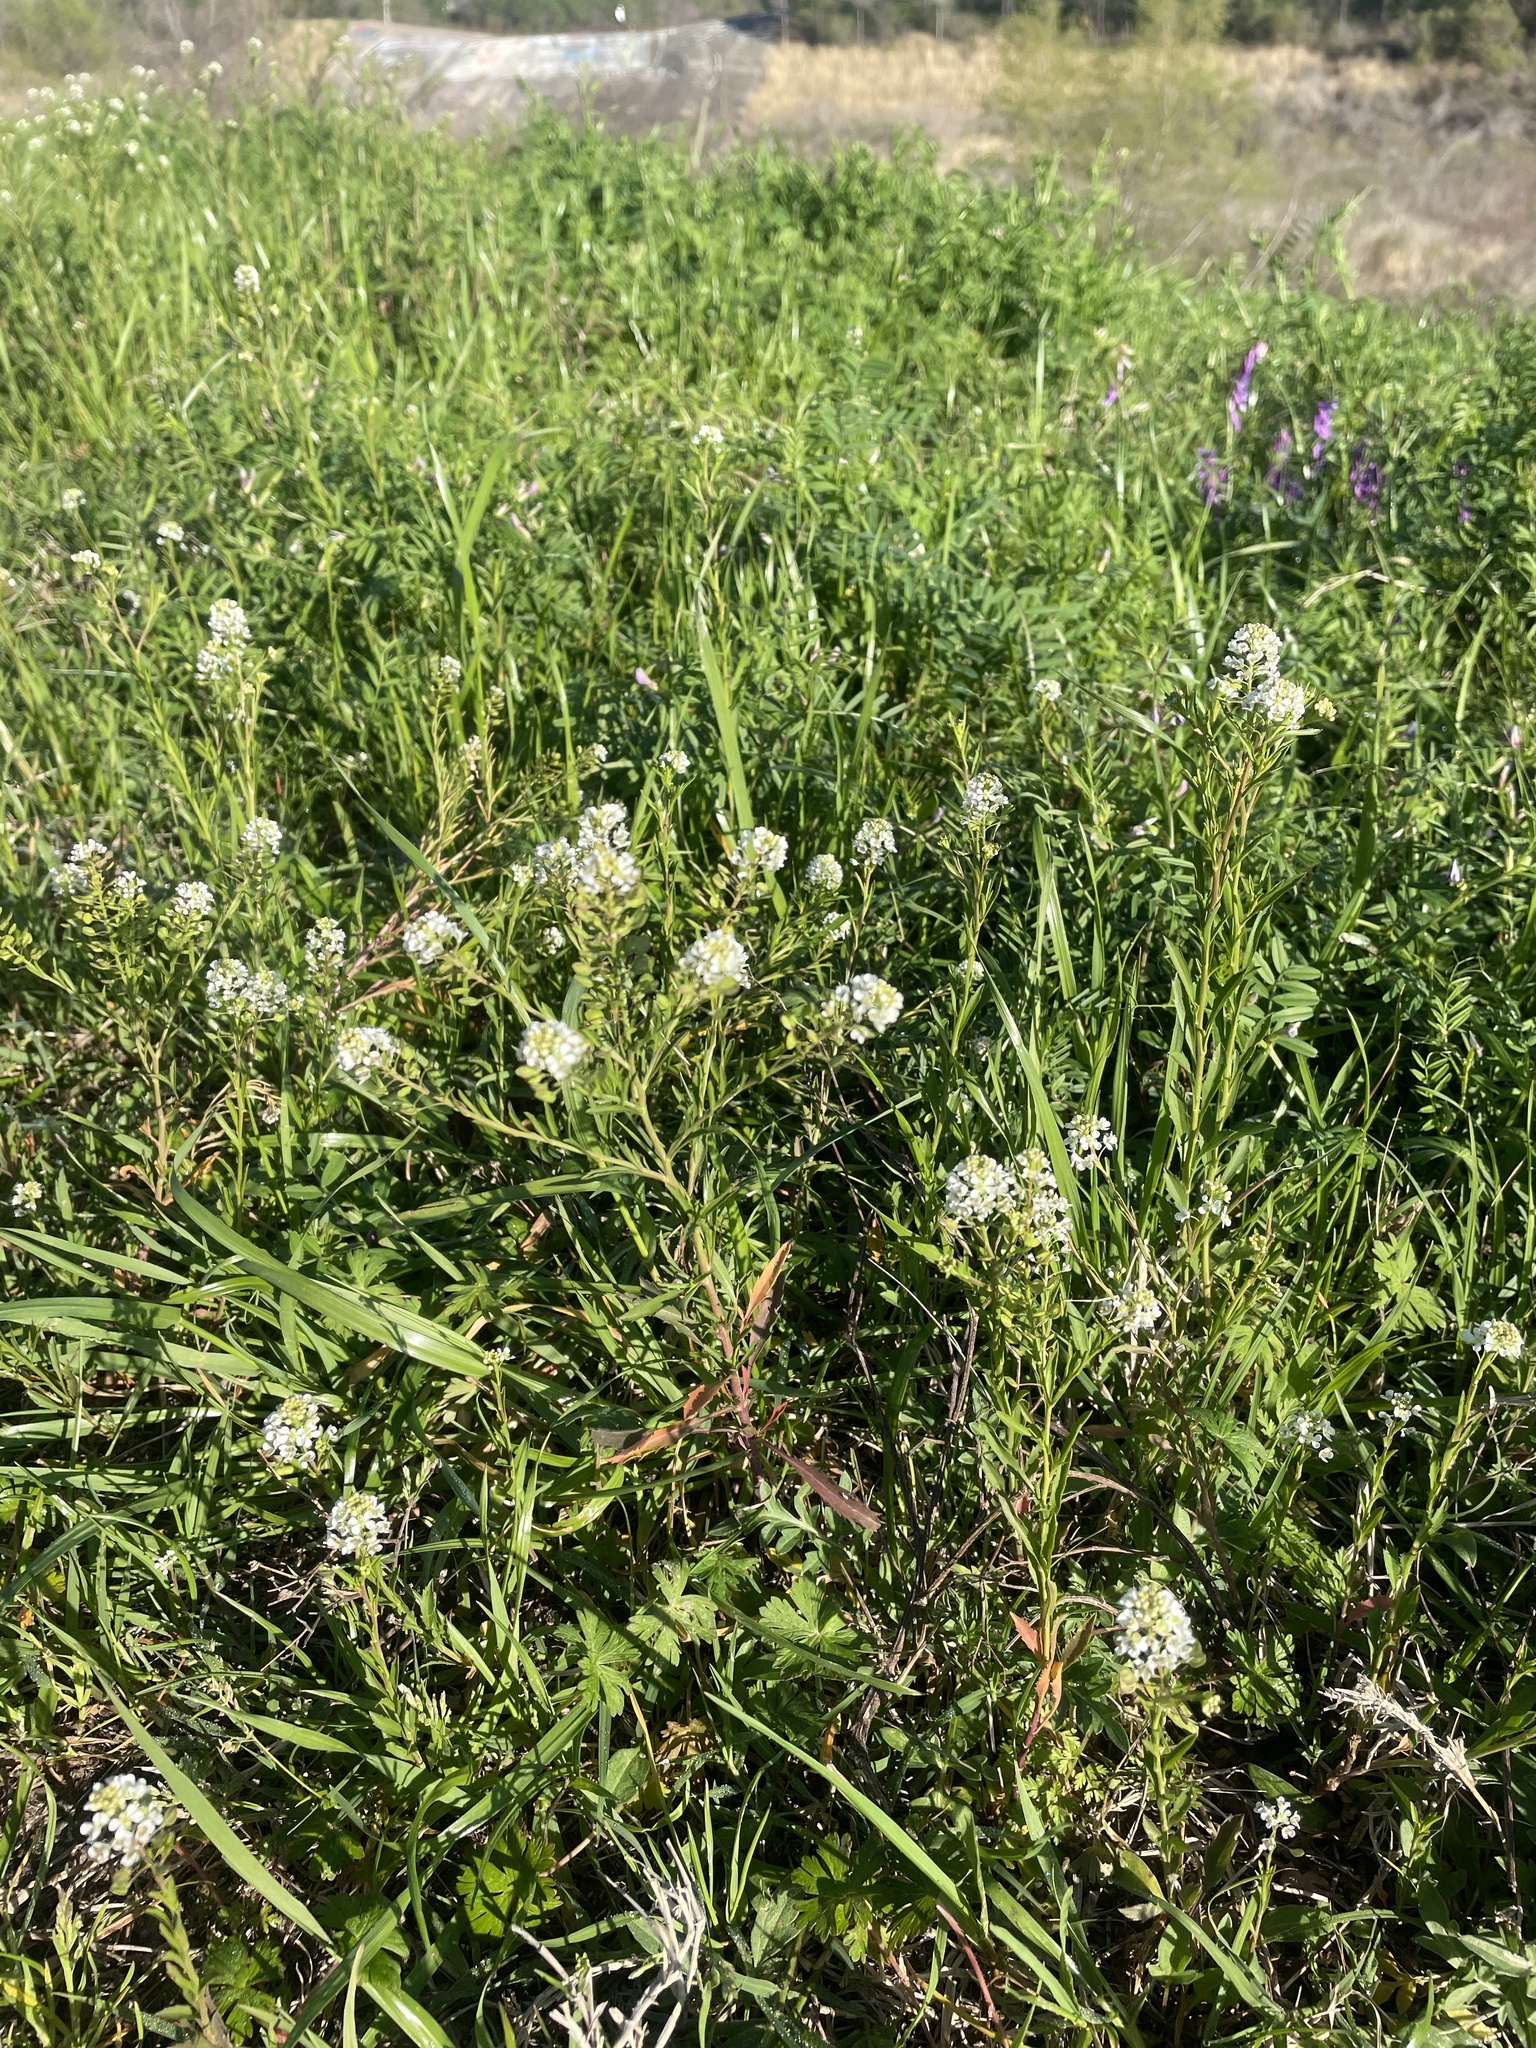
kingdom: Plantae
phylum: Tracheophyta
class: Magnoliopsida
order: Brassicales
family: Brassicaceae
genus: Lepidium
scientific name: Lepidium virginicum
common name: Least pepperwort
